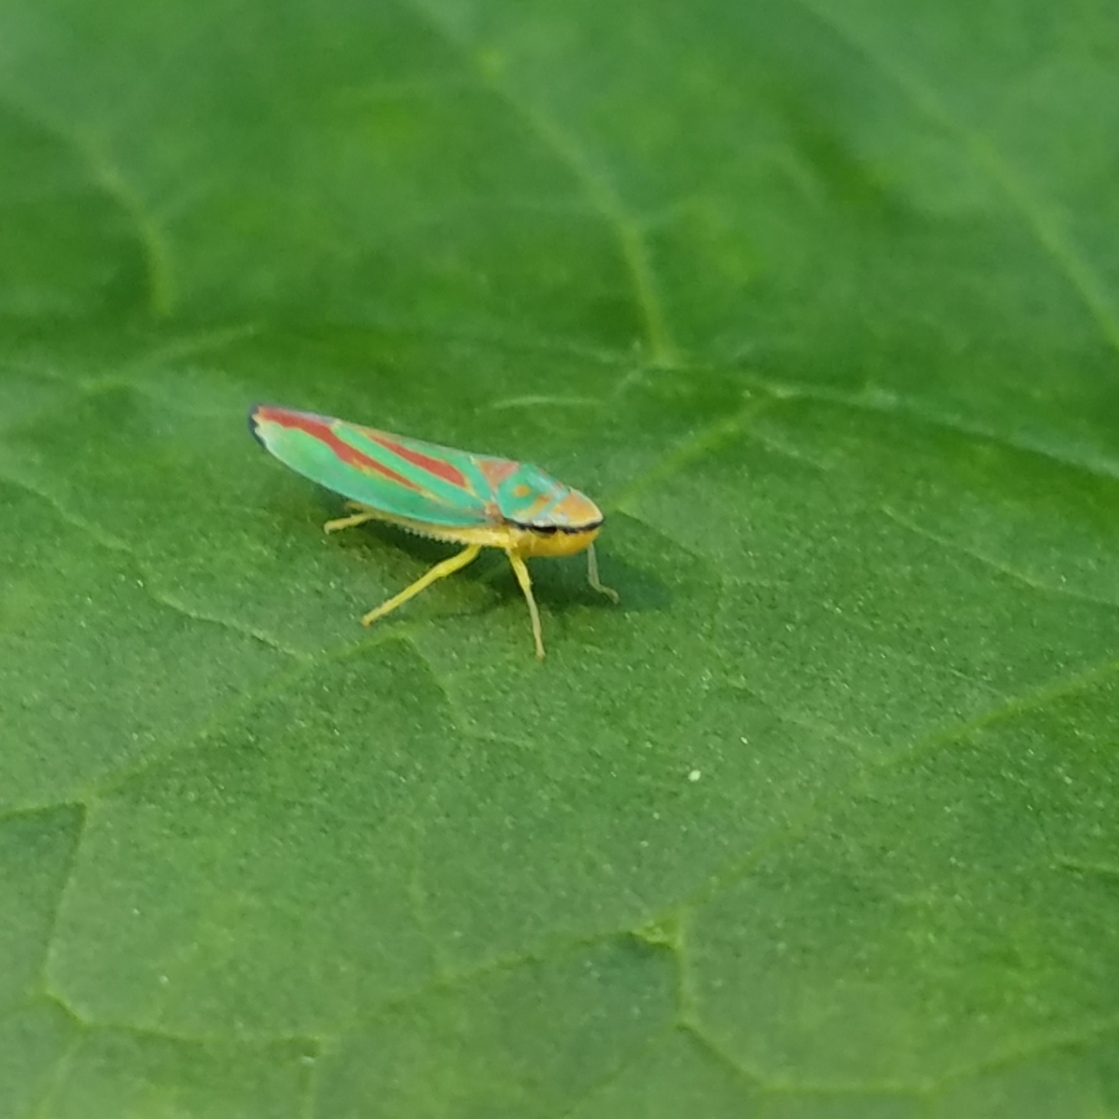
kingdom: Animalia
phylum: Arthropoda
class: Insecta
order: Hemiptera
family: Cicadellidae
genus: Graphocephala
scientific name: Graphocephala fennahi
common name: Rhododendron leafhopper
